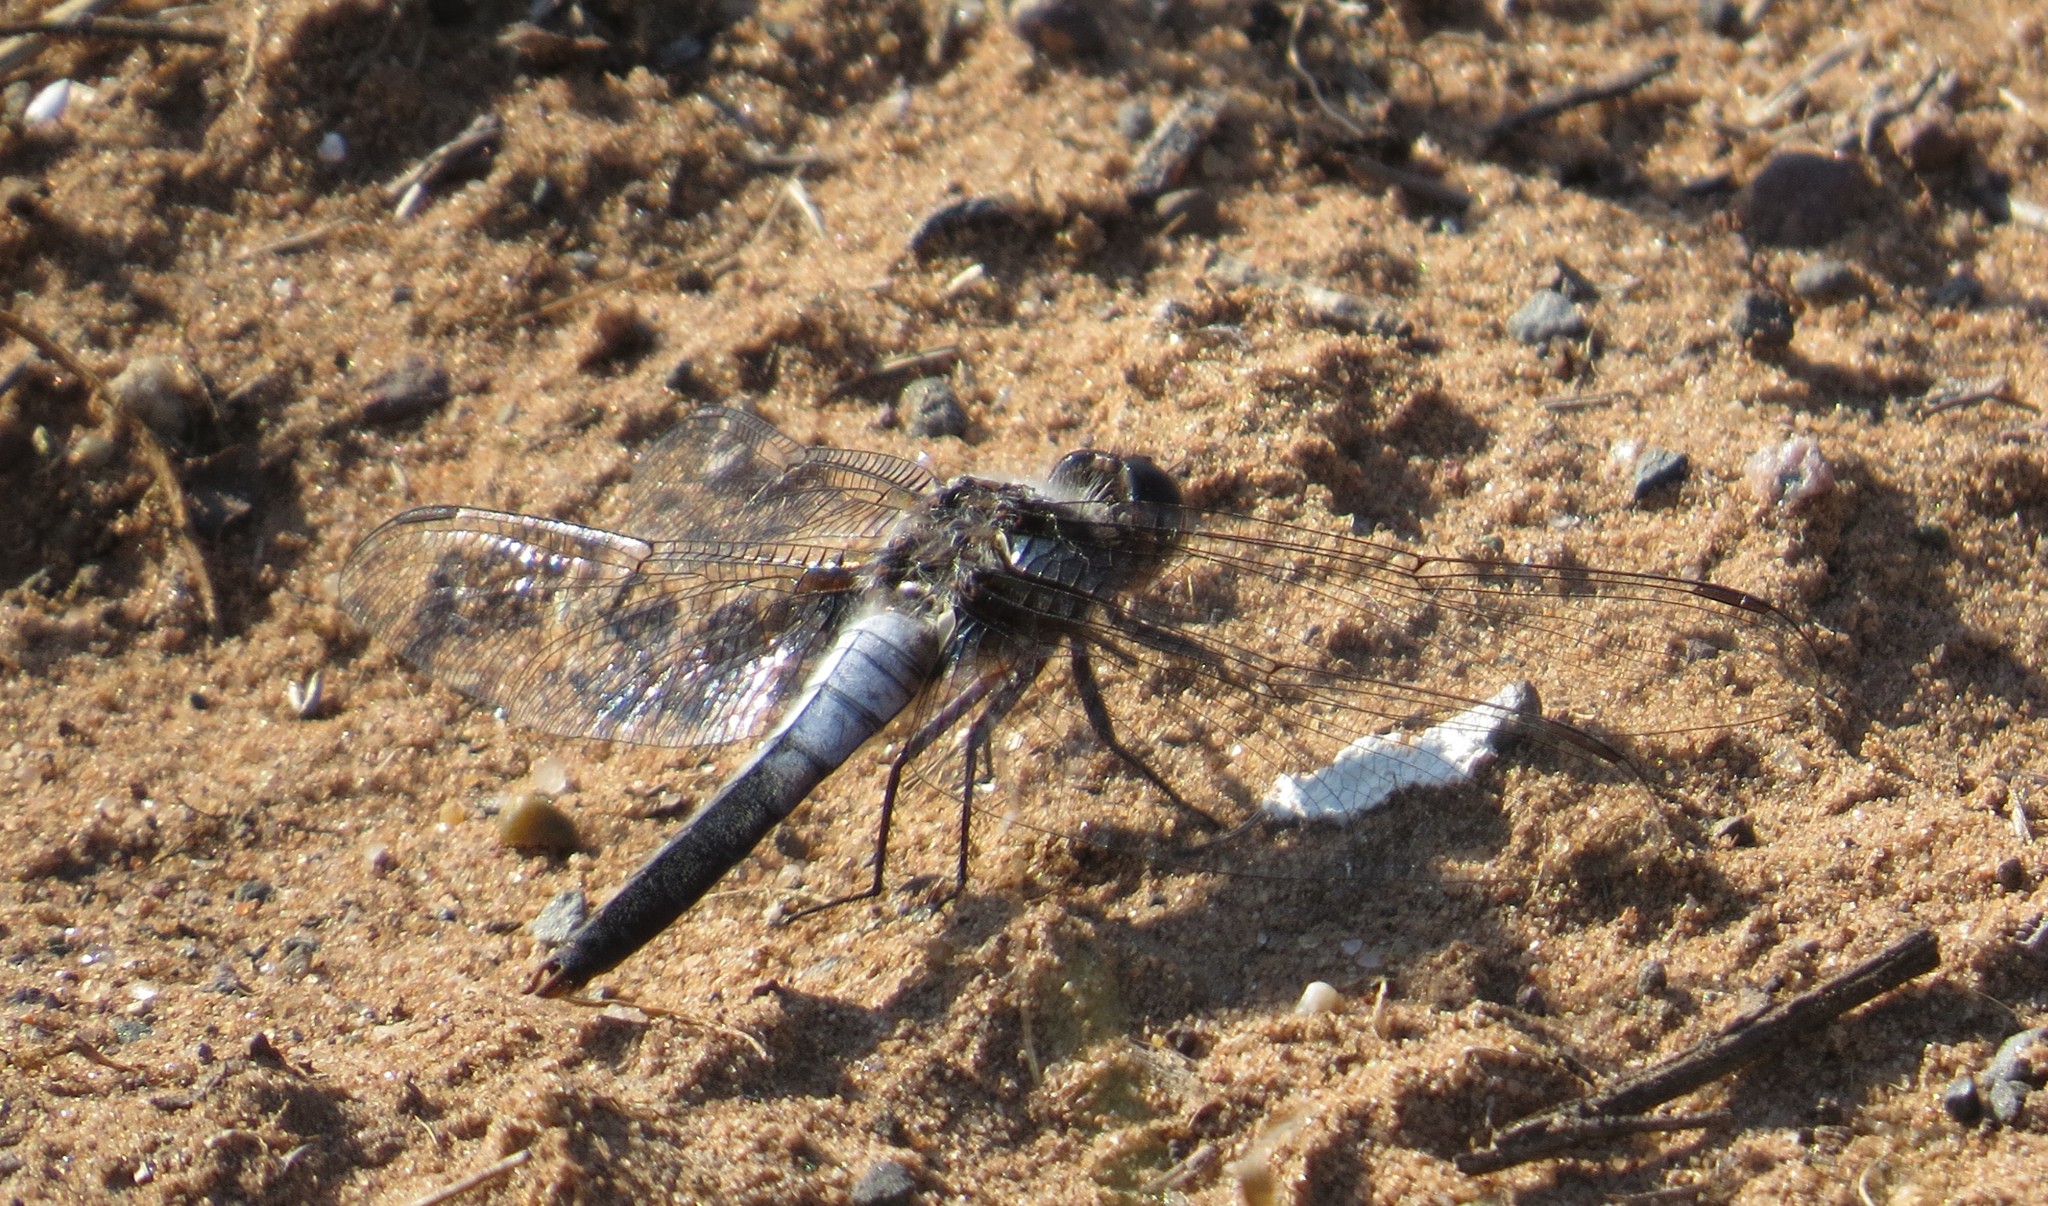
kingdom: Animalia
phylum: Arthropoda
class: Insecta
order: Odonata
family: Libellulidae
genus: Ladona
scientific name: Ladona julia
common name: Chalk-fronted corporal
